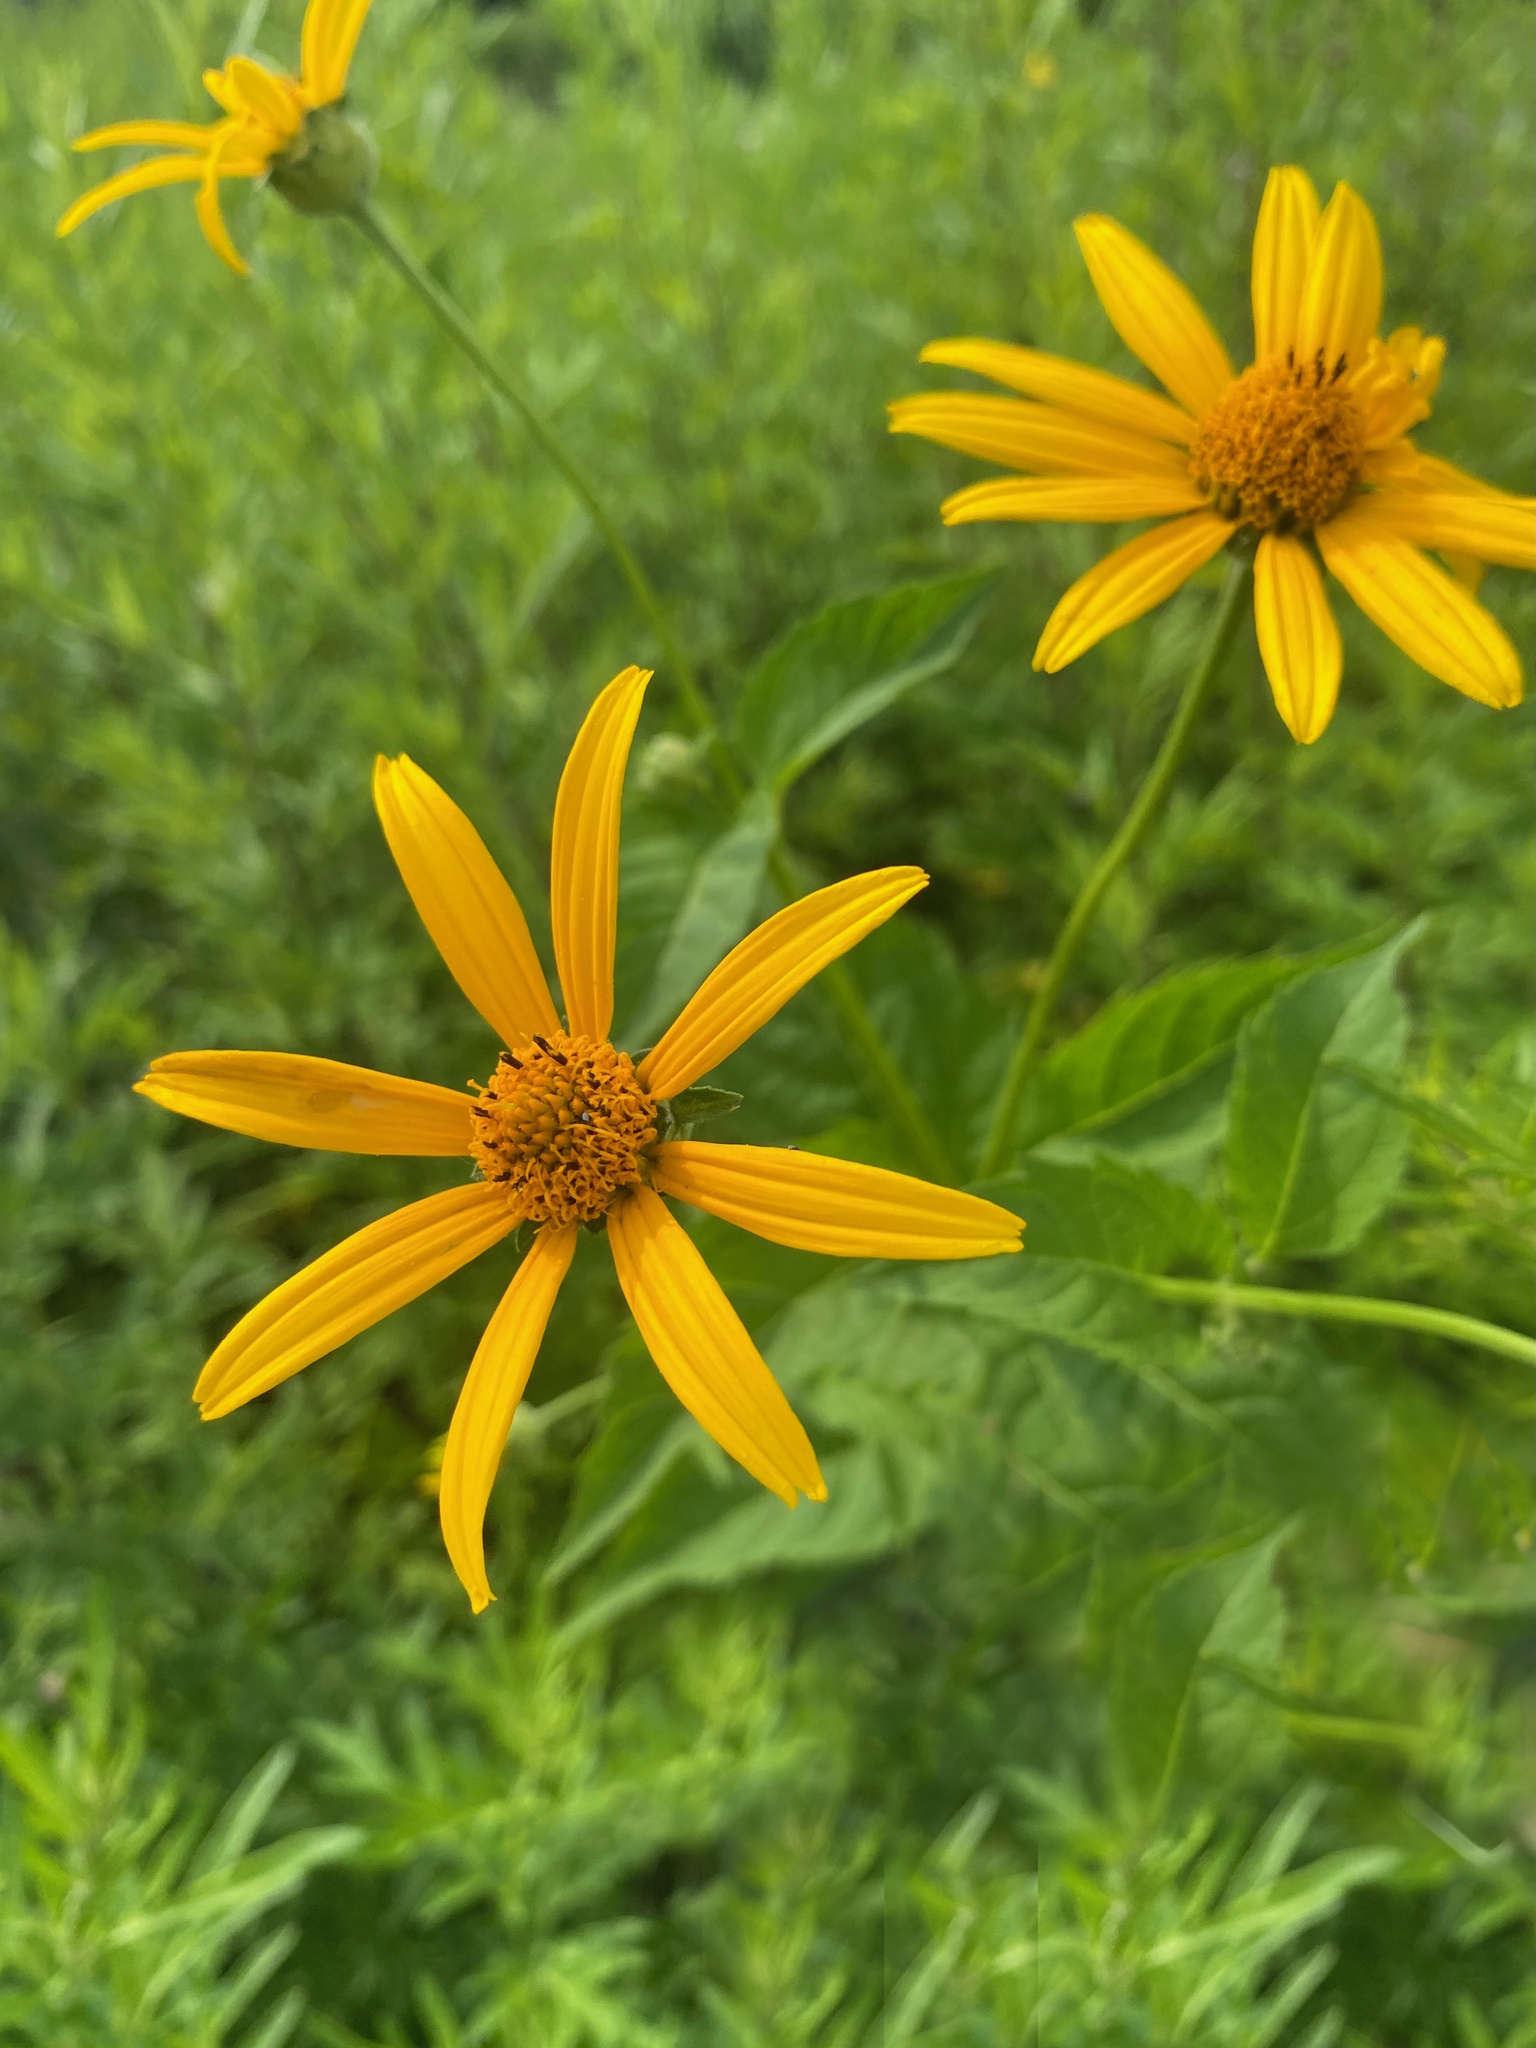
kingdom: Plantae
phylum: Tracheophyta
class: Magnoliopsida
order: Asterales
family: Asteraceae
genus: Heliopsis
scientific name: Heliopsis helianthoides
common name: False sunflower
